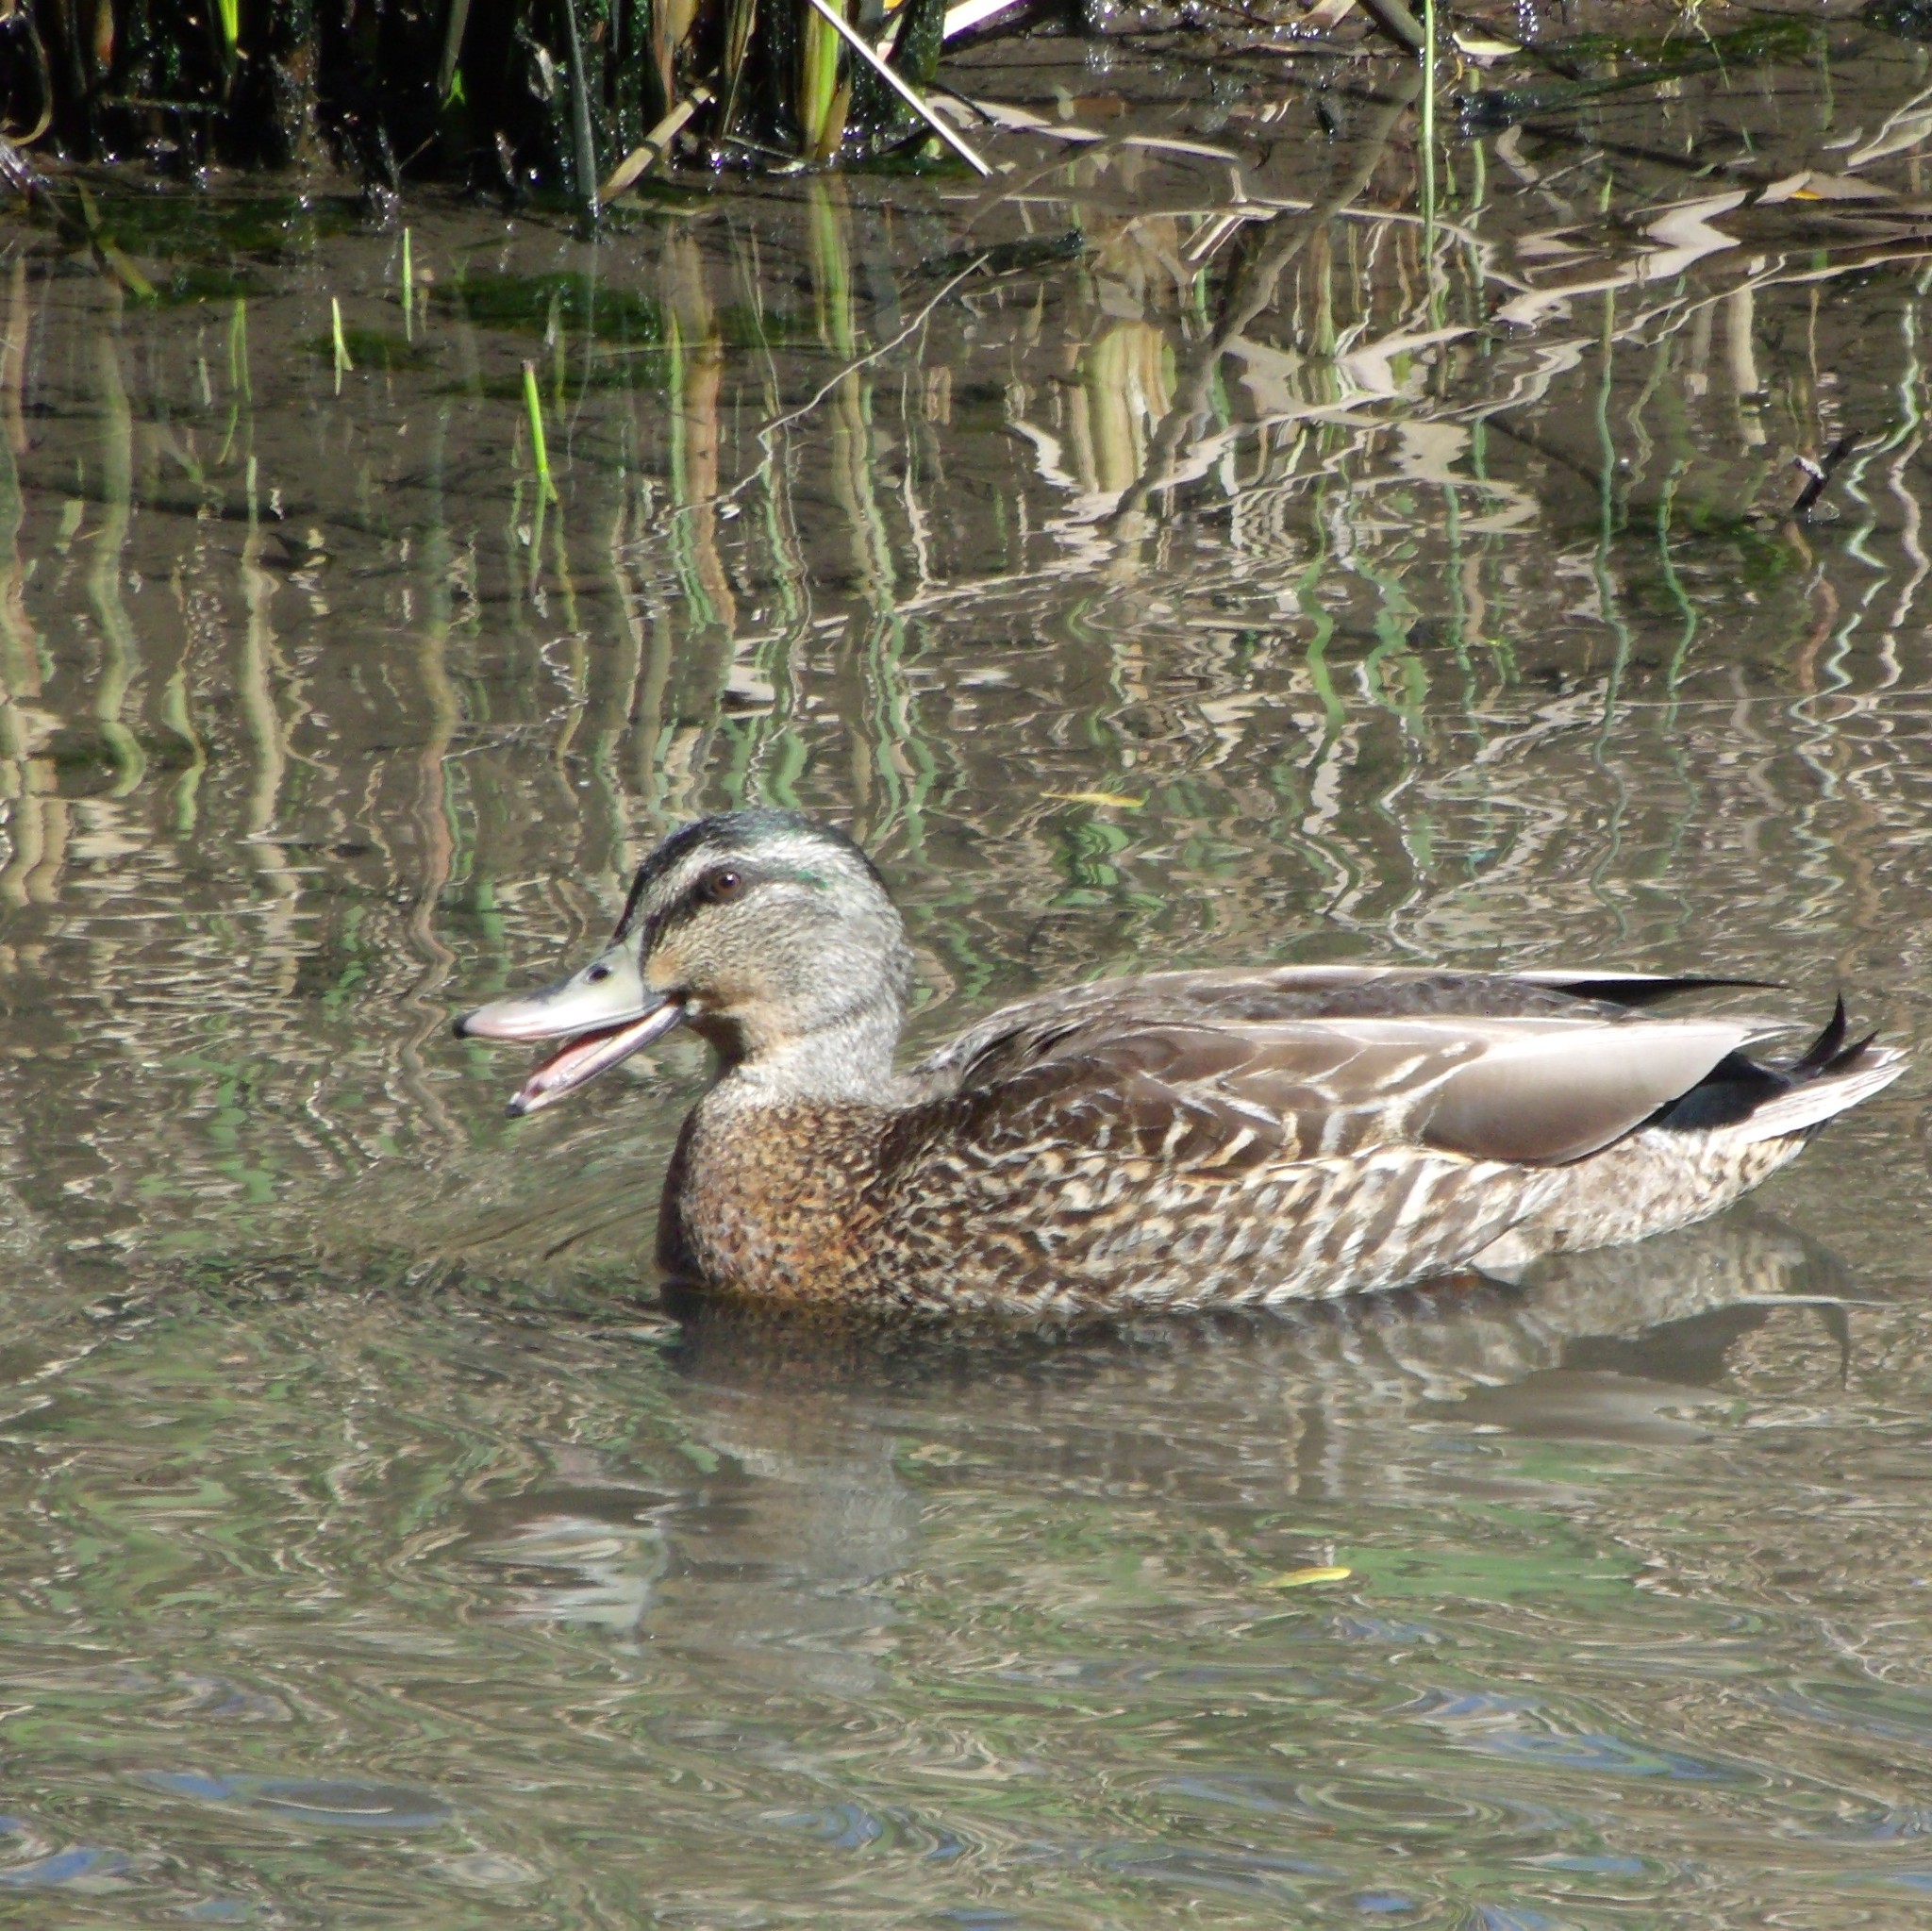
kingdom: Animalia
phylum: Chordata
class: Aves
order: Anseriformes
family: Anatidae
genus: Anas
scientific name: Anas platyrhynchos
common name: Mallard
